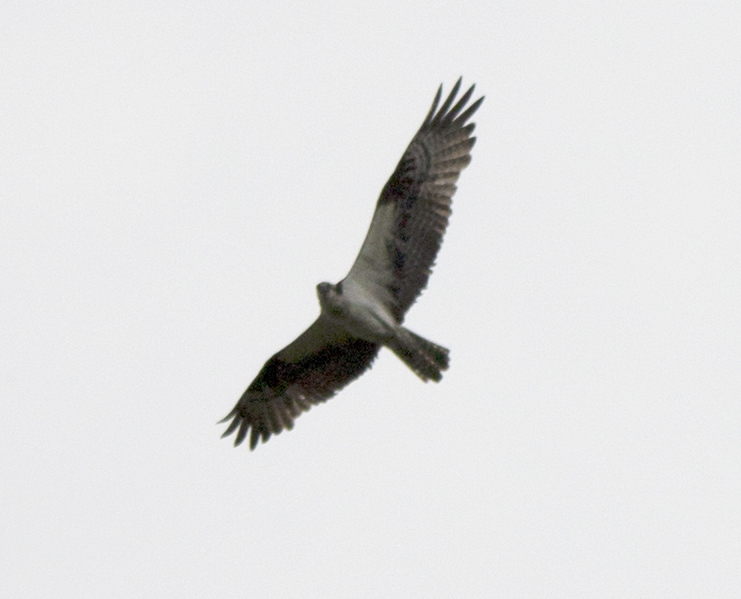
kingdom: Animalia
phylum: Chordata
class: Aves
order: Accipitriformes
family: Pandionidae
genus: Pandion
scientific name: Pandion haliaetus
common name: Osprey
